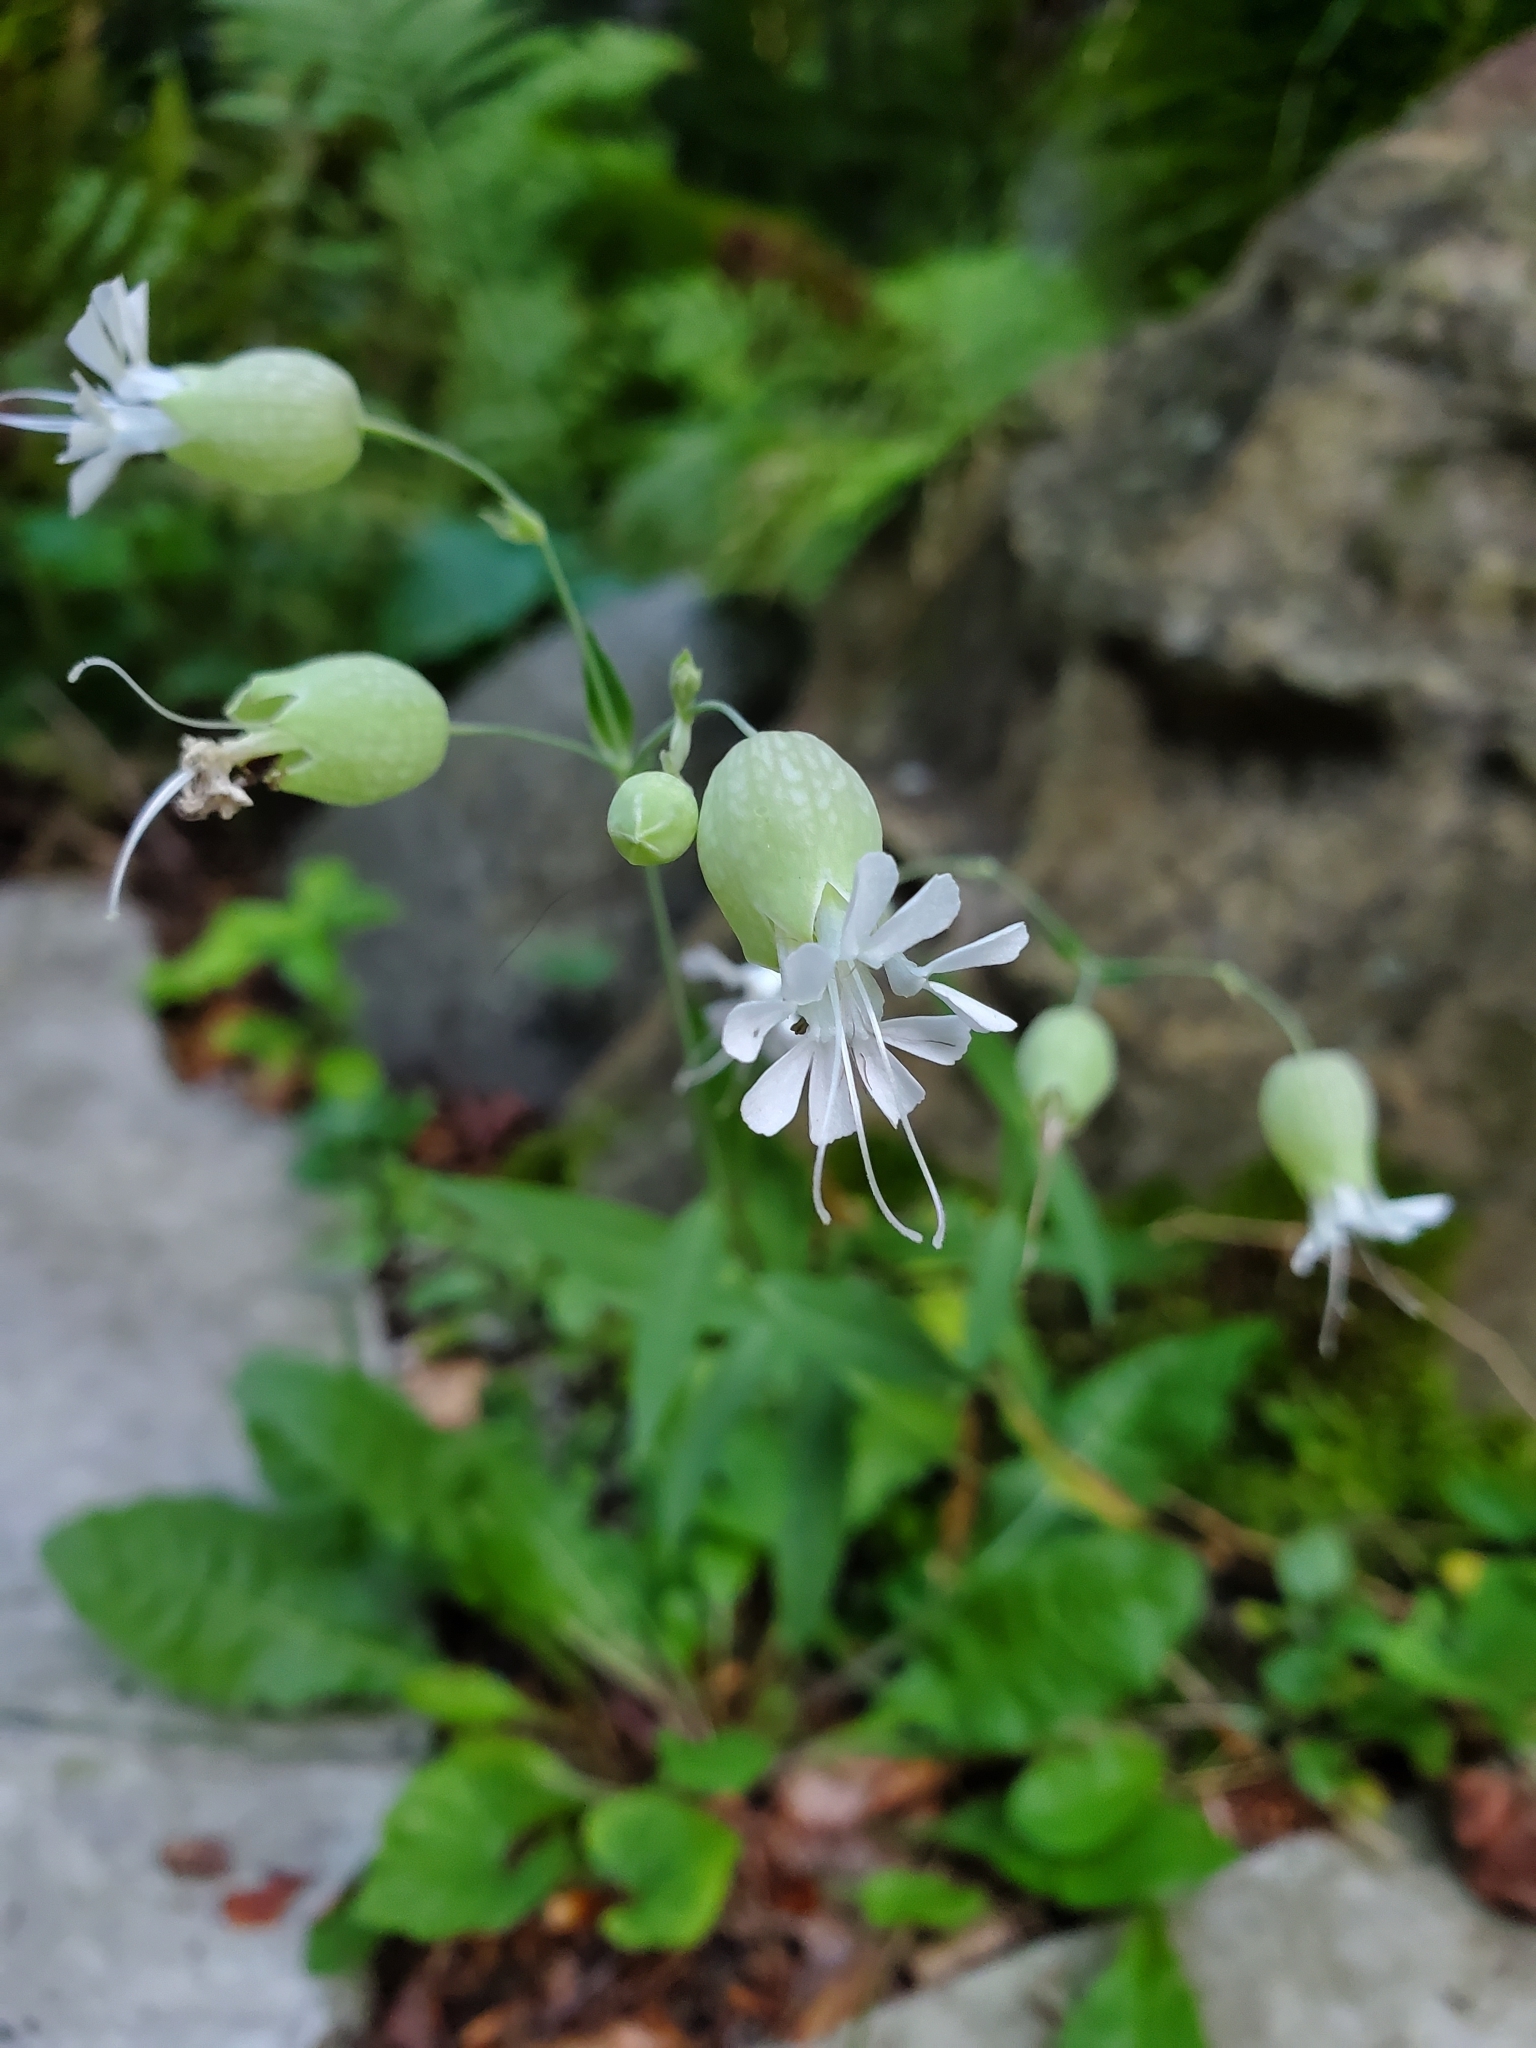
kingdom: Plantae
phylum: Tracheophyta
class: Magnoliopsida
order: Caryophyllales
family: Caryophyllaceae
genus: Silene
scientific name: Silene vulgaris
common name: Bladder campion
